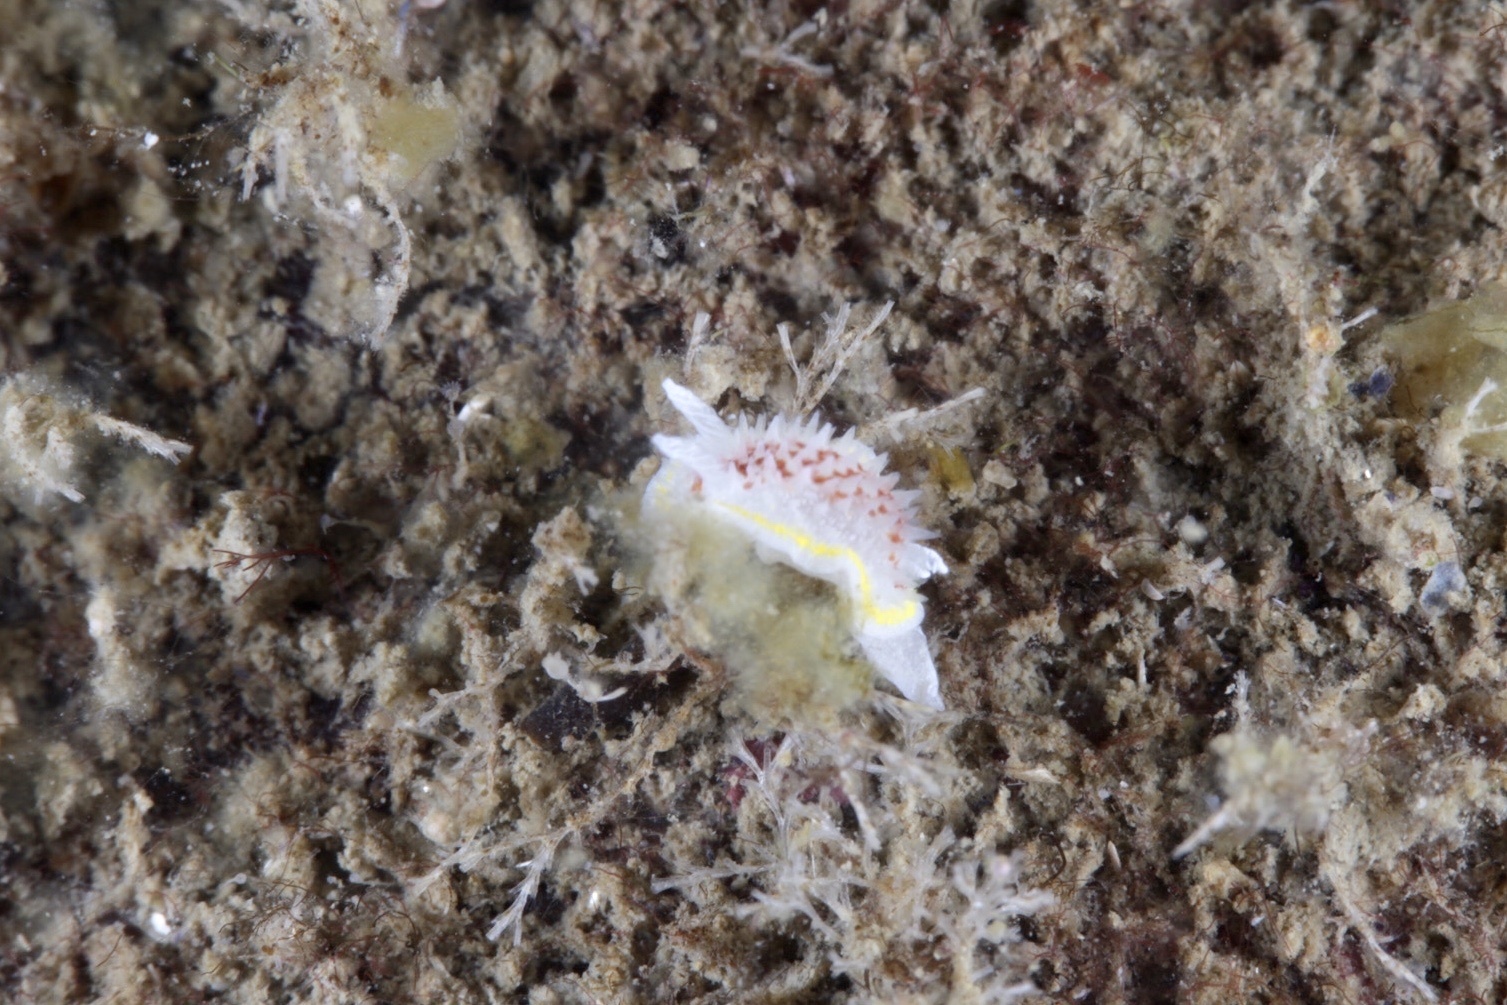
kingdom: Animalia
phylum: Mollusca
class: Gastropoda
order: Nudibranchia
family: Calycidorididae
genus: Diaphorodoris
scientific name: Diaphorodoris luteocincta
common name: Fried egg nudibranch
